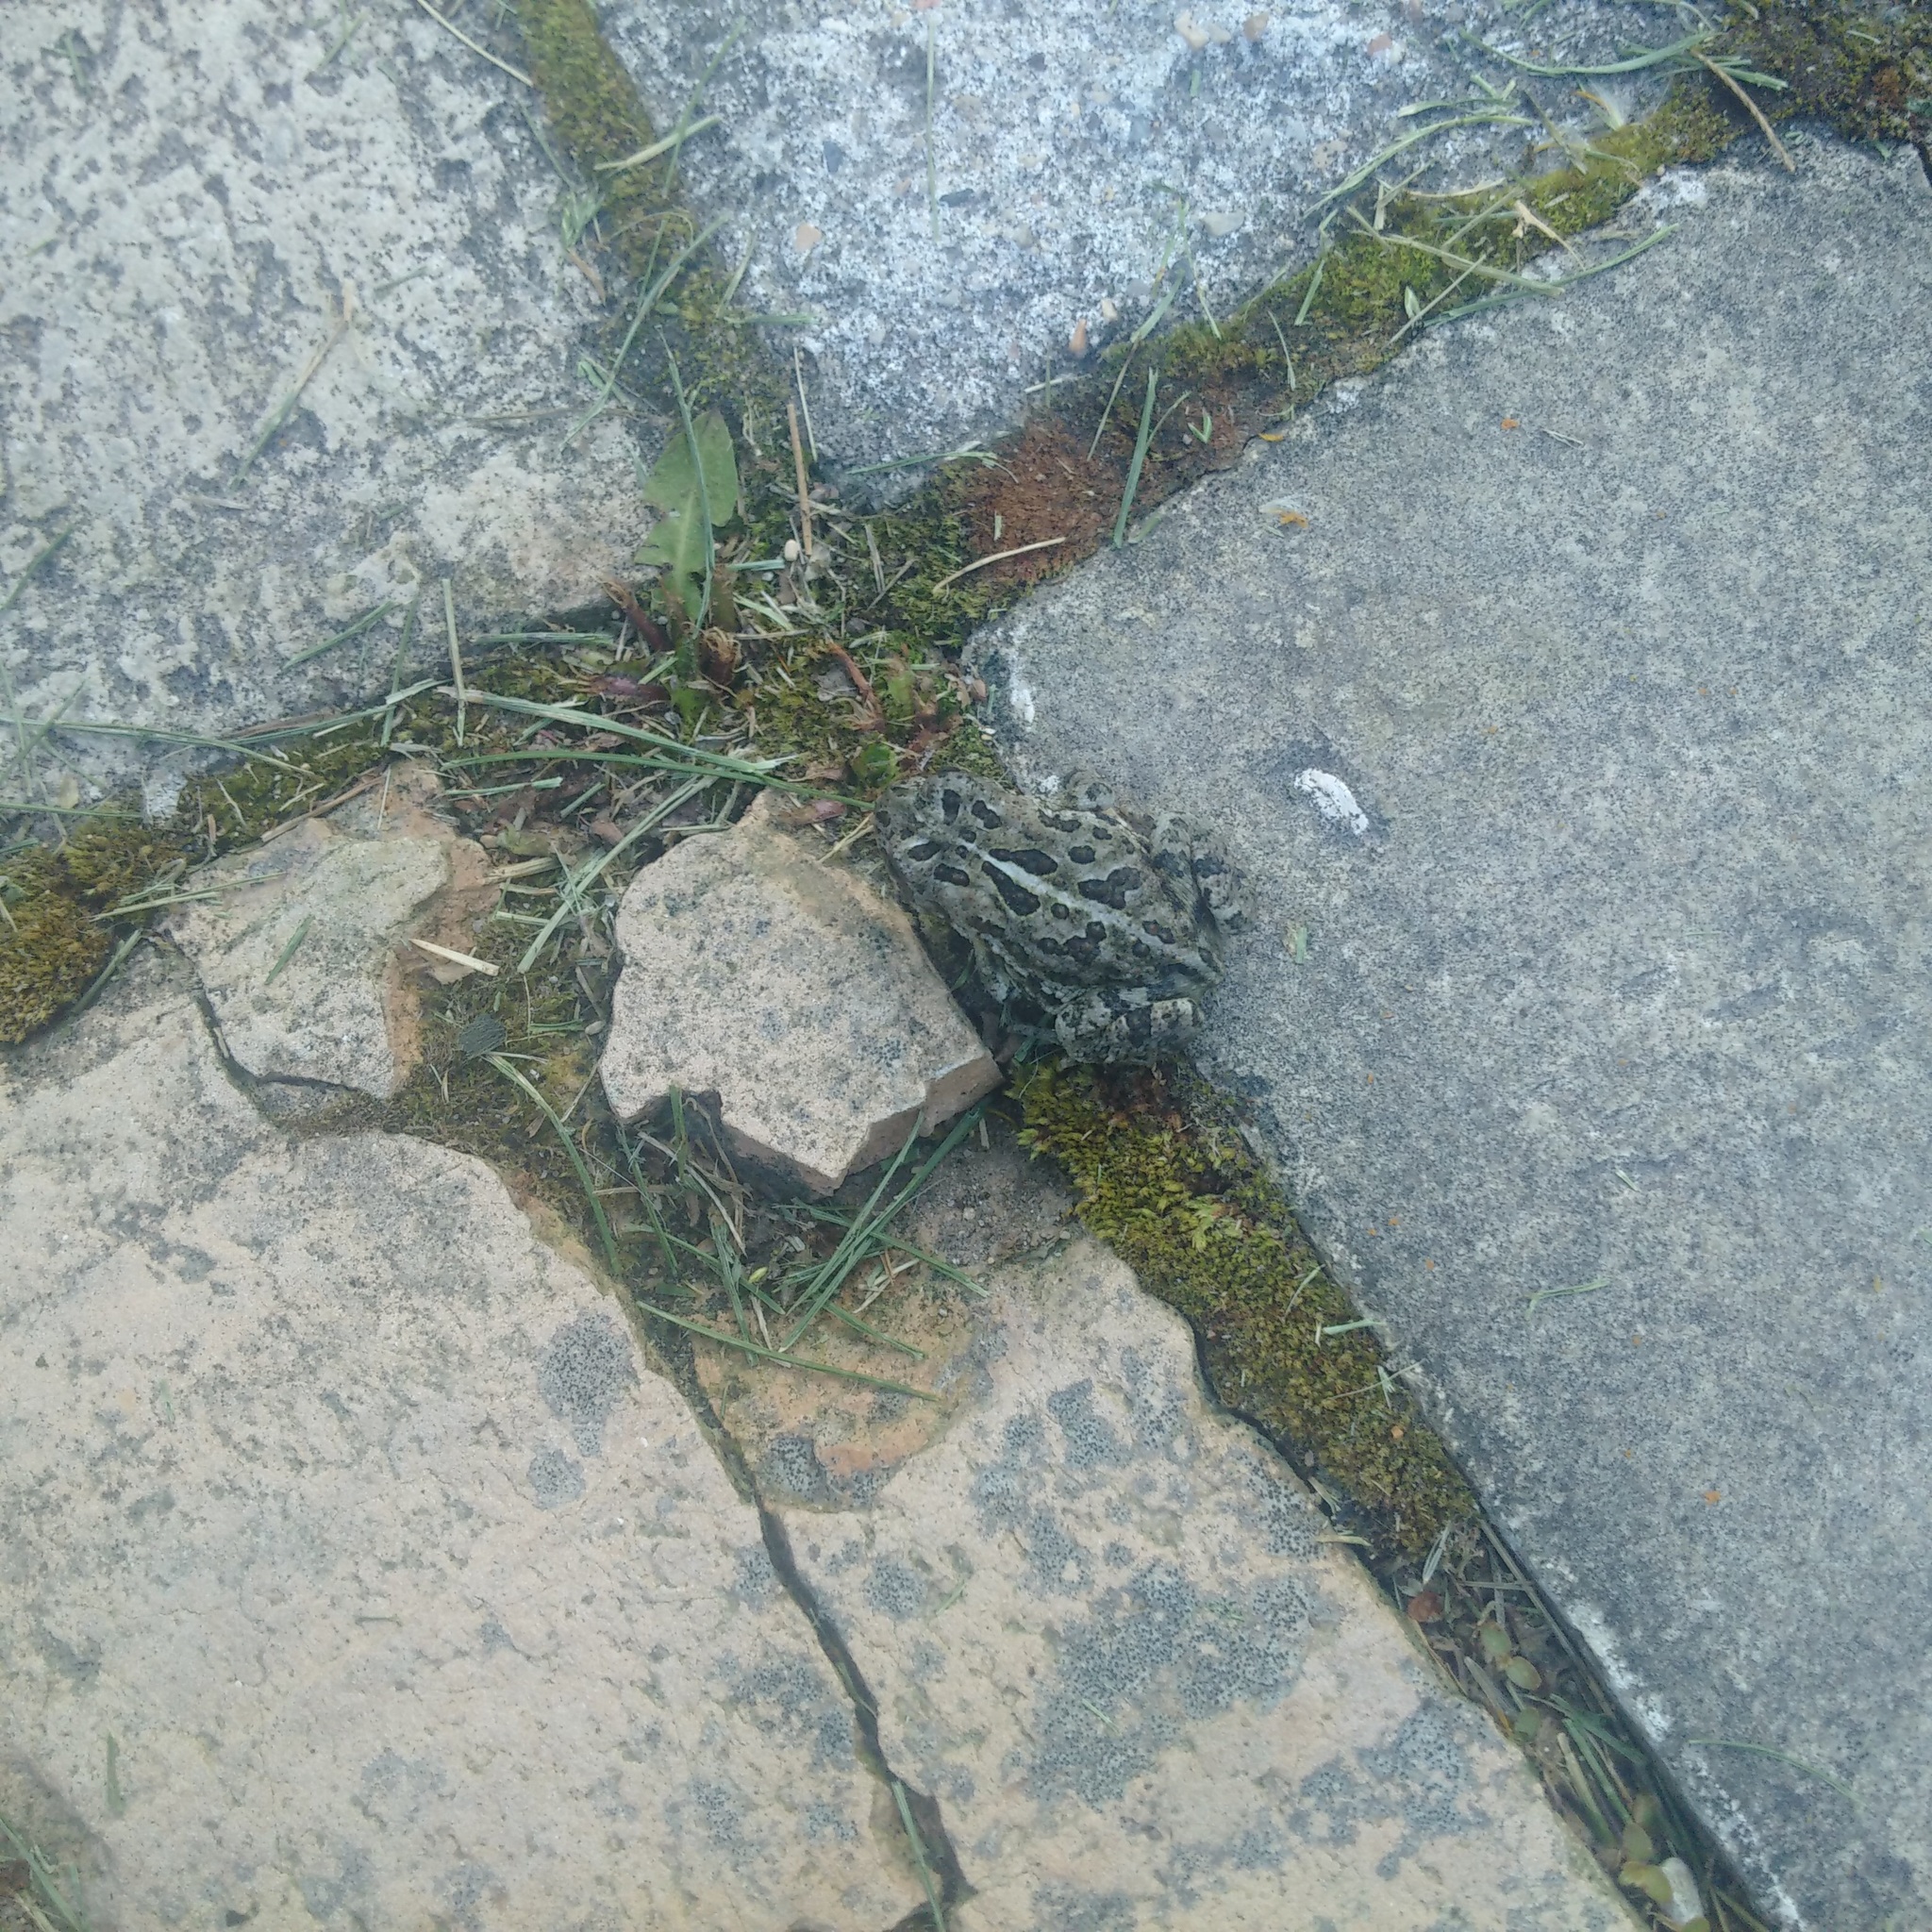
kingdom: Animalia
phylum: Chordata
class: Amphibia
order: Anura
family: Bufonidae
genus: Anaxyrus
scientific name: Anaxyrus hemiophrys
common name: Canadian toad
